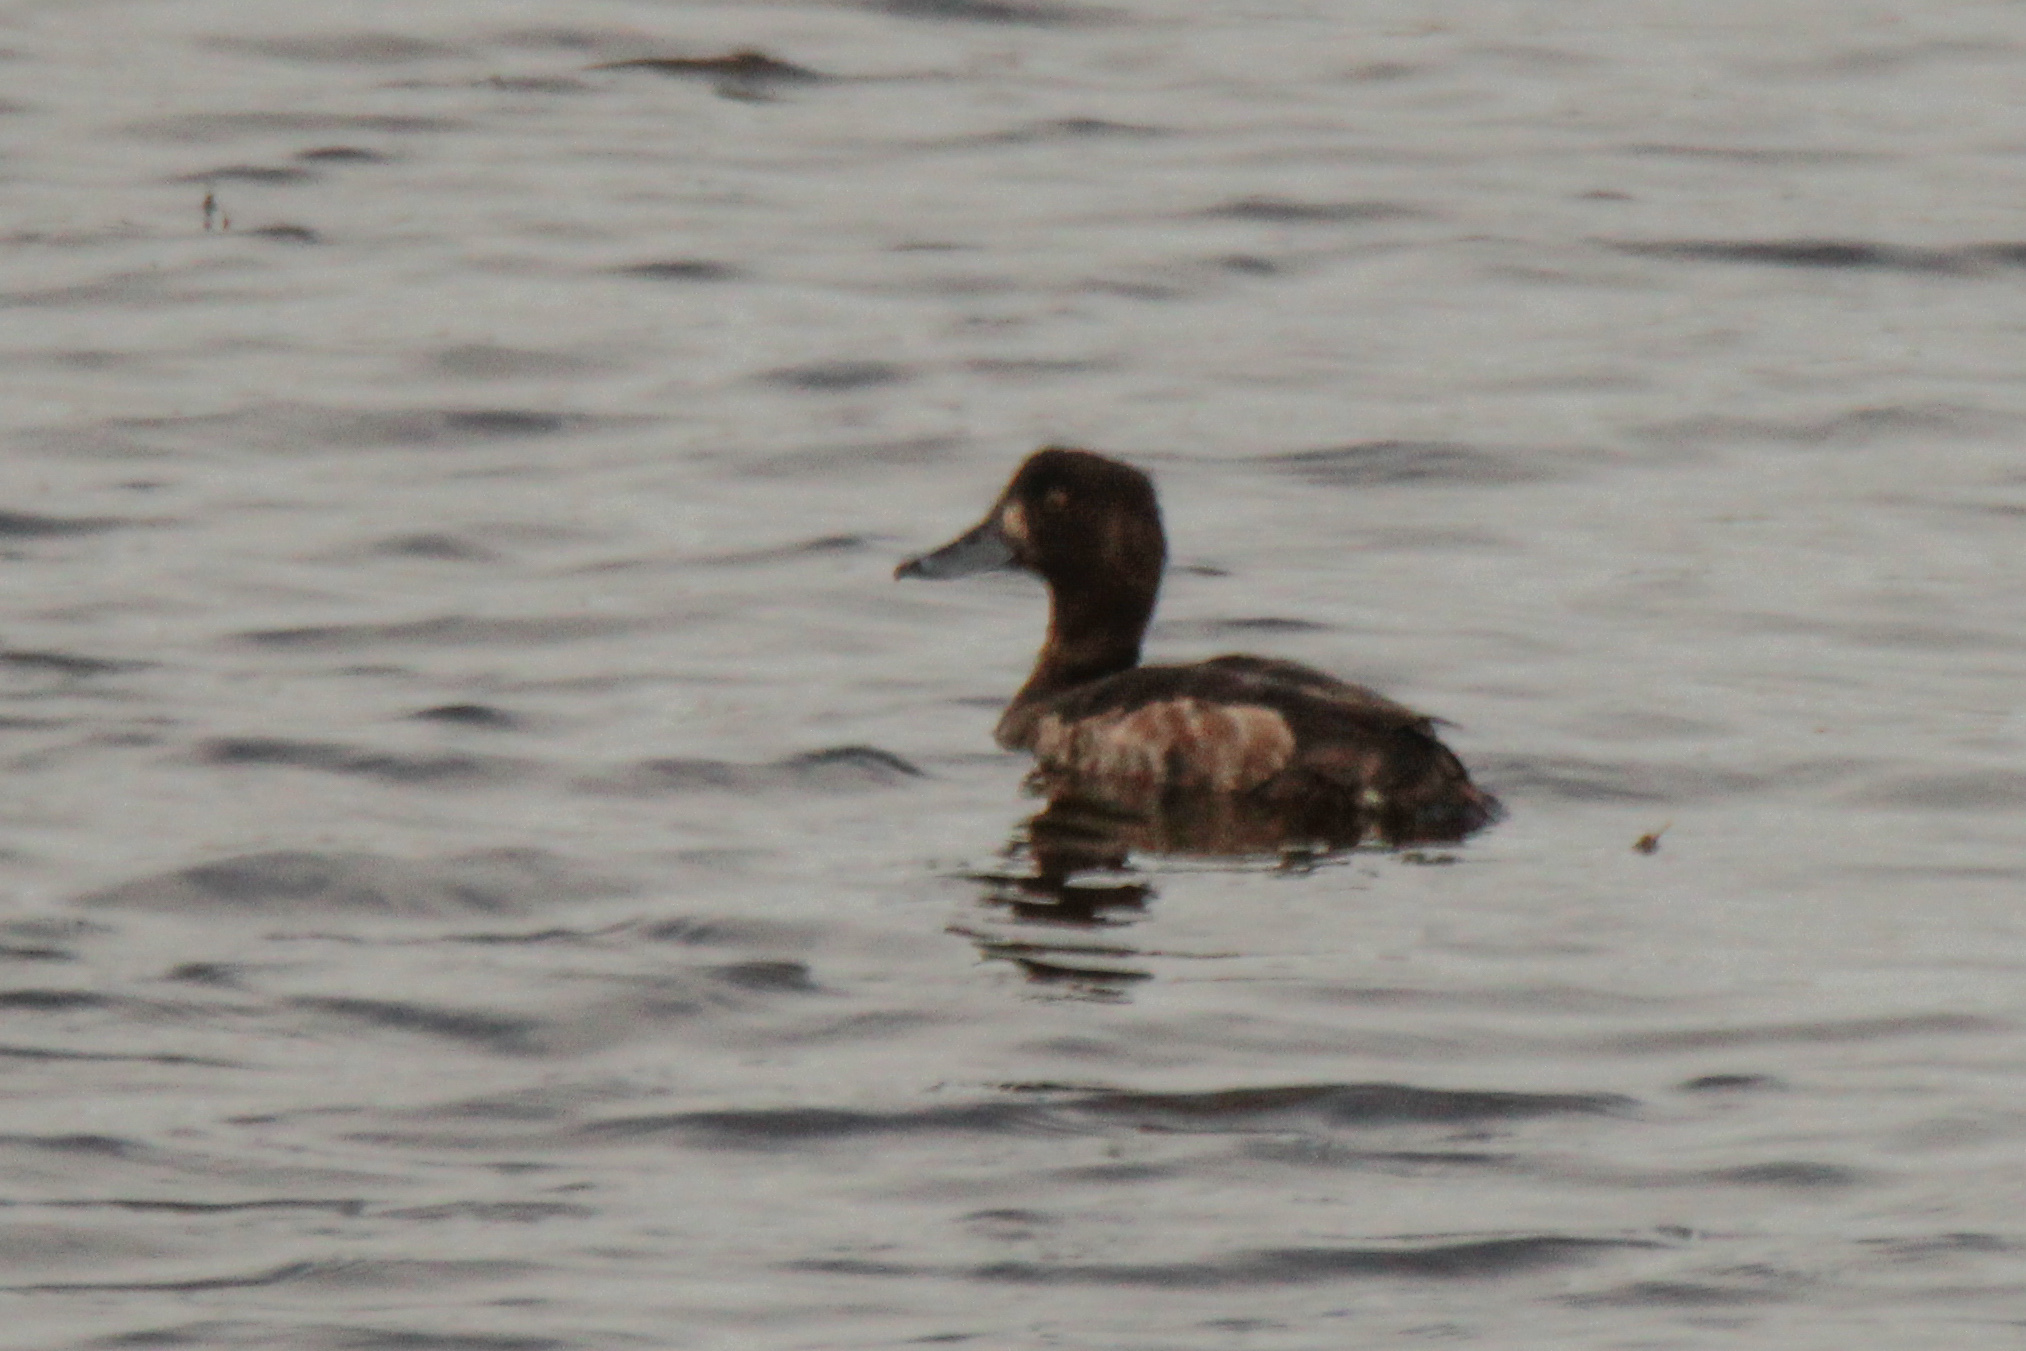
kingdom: Animalia
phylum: Chordata
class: Aves
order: Anseriformes
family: Anatidae
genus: Aythya
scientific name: Aythya fuligula
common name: Tufted duck
